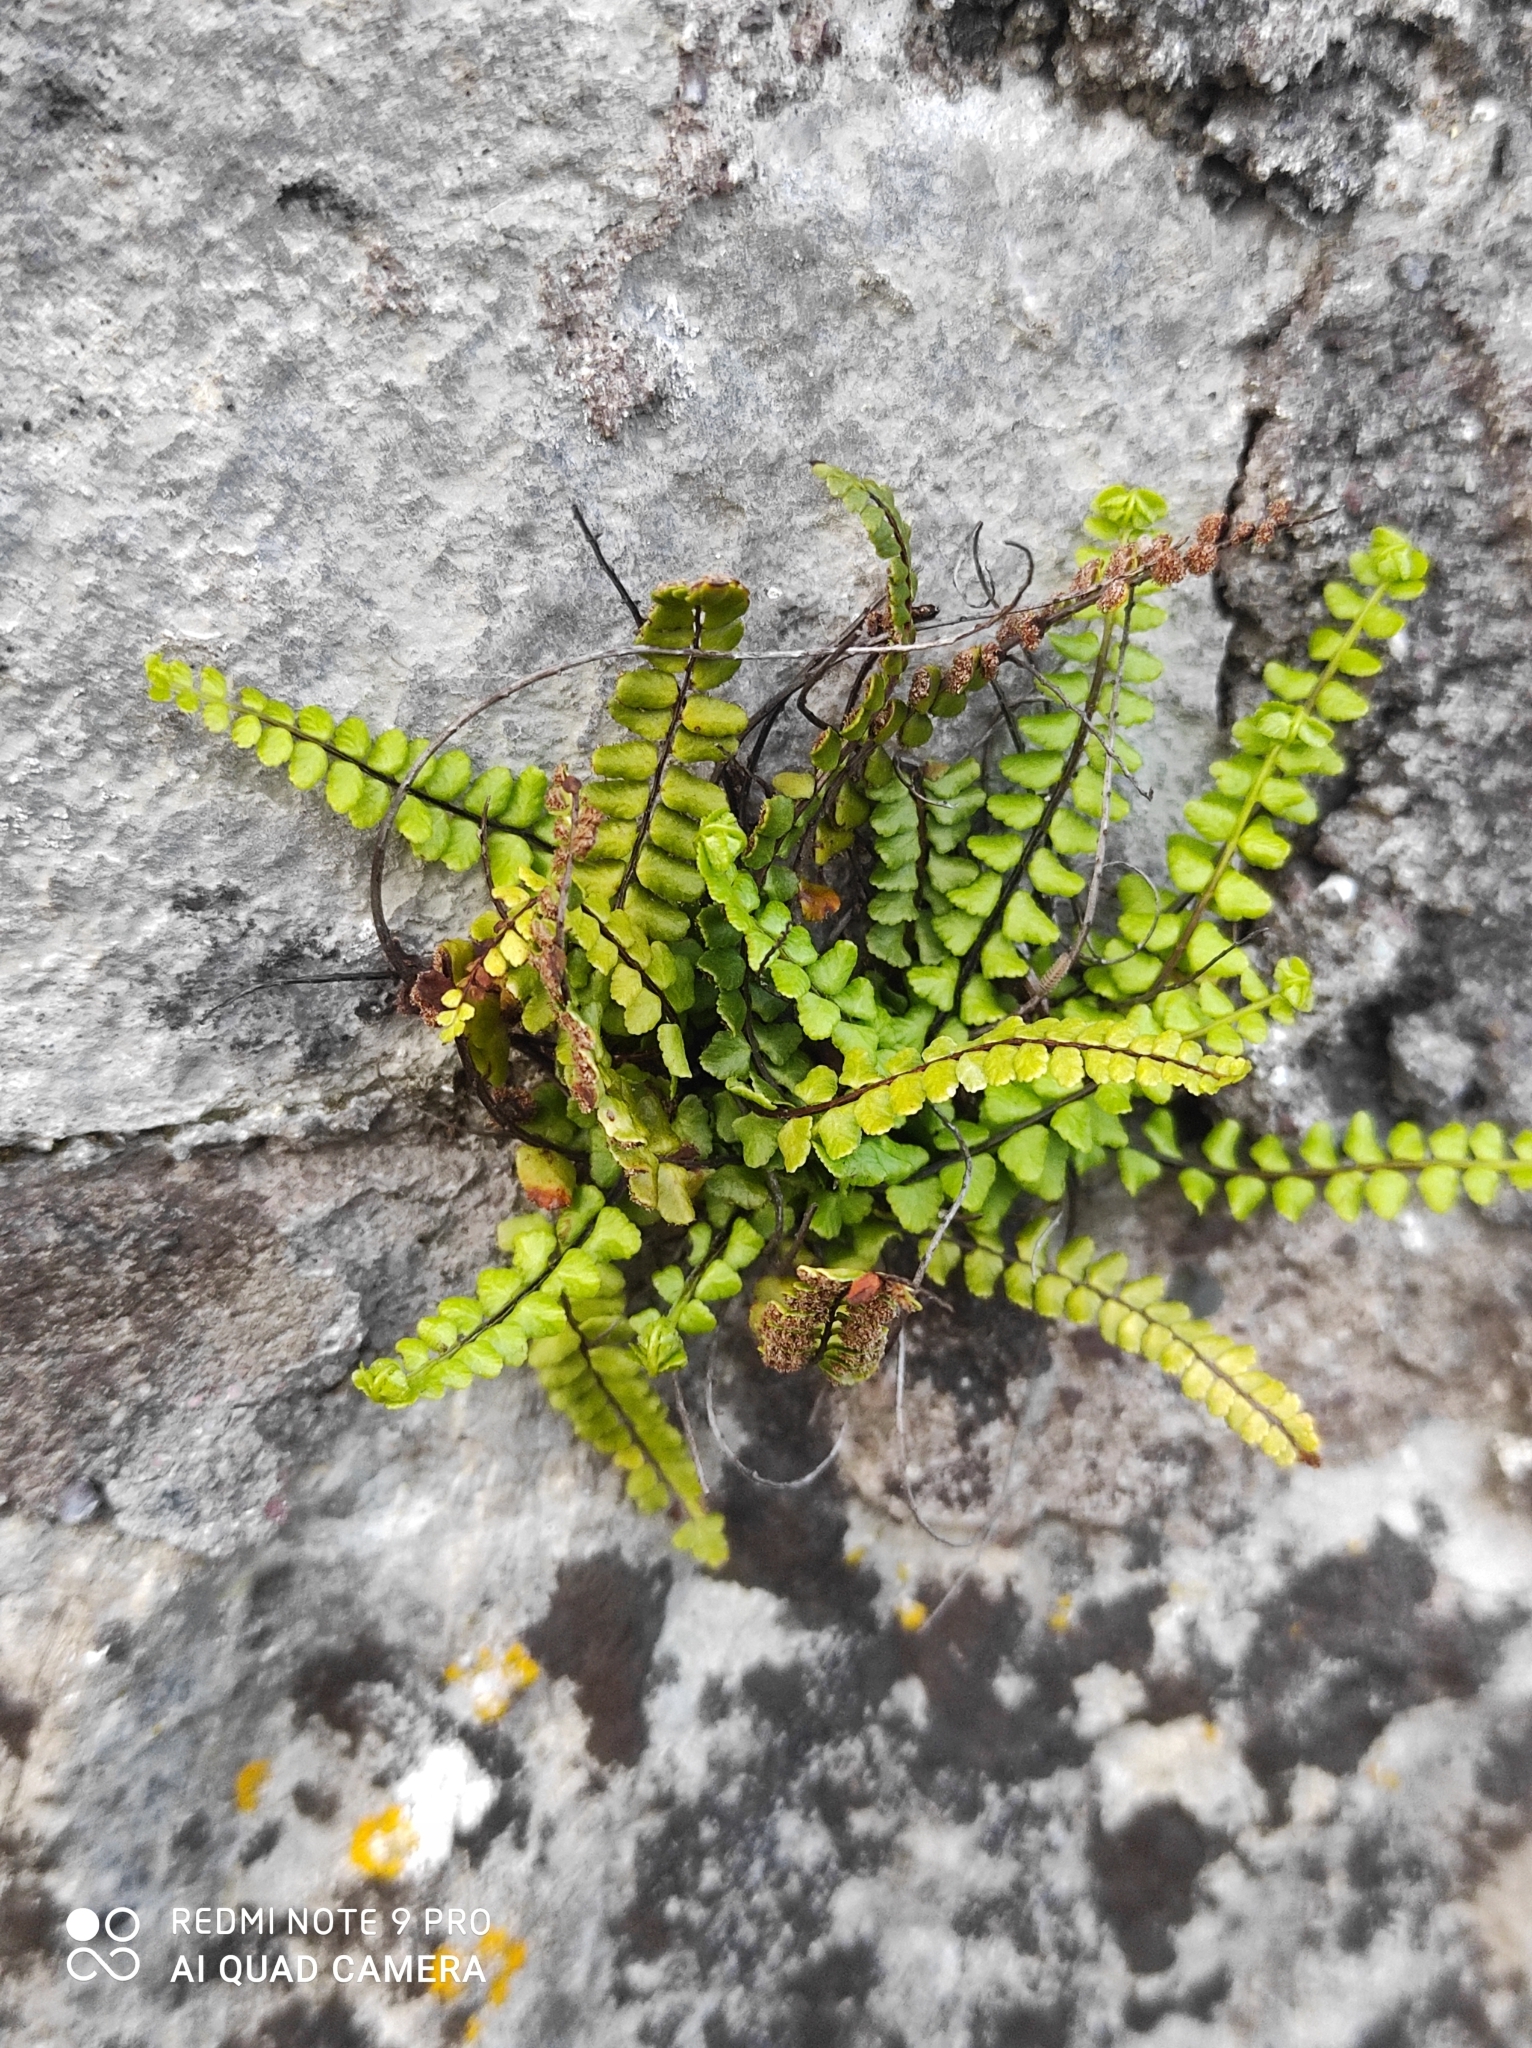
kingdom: Plantae
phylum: Tracheophyta
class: Polypodiopsida
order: Polypodiales
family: Aspleniaceae
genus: Asplenium
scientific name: Asplenium trichomanes
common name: Maidenhair spleenwort
